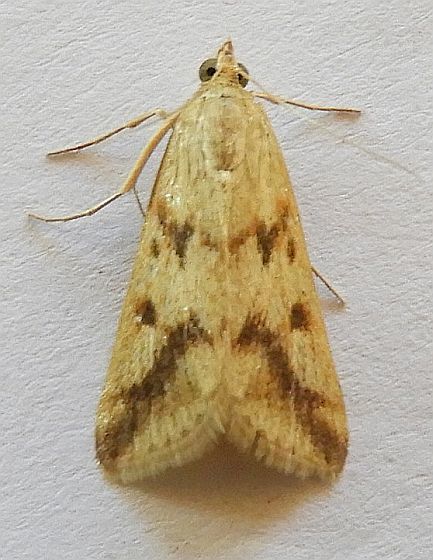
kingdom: Animalia
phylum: Arthropoda
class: Insecta
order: Lepidoptera
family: Crambidae
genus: Achyra
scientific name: Achyra bifidalis
